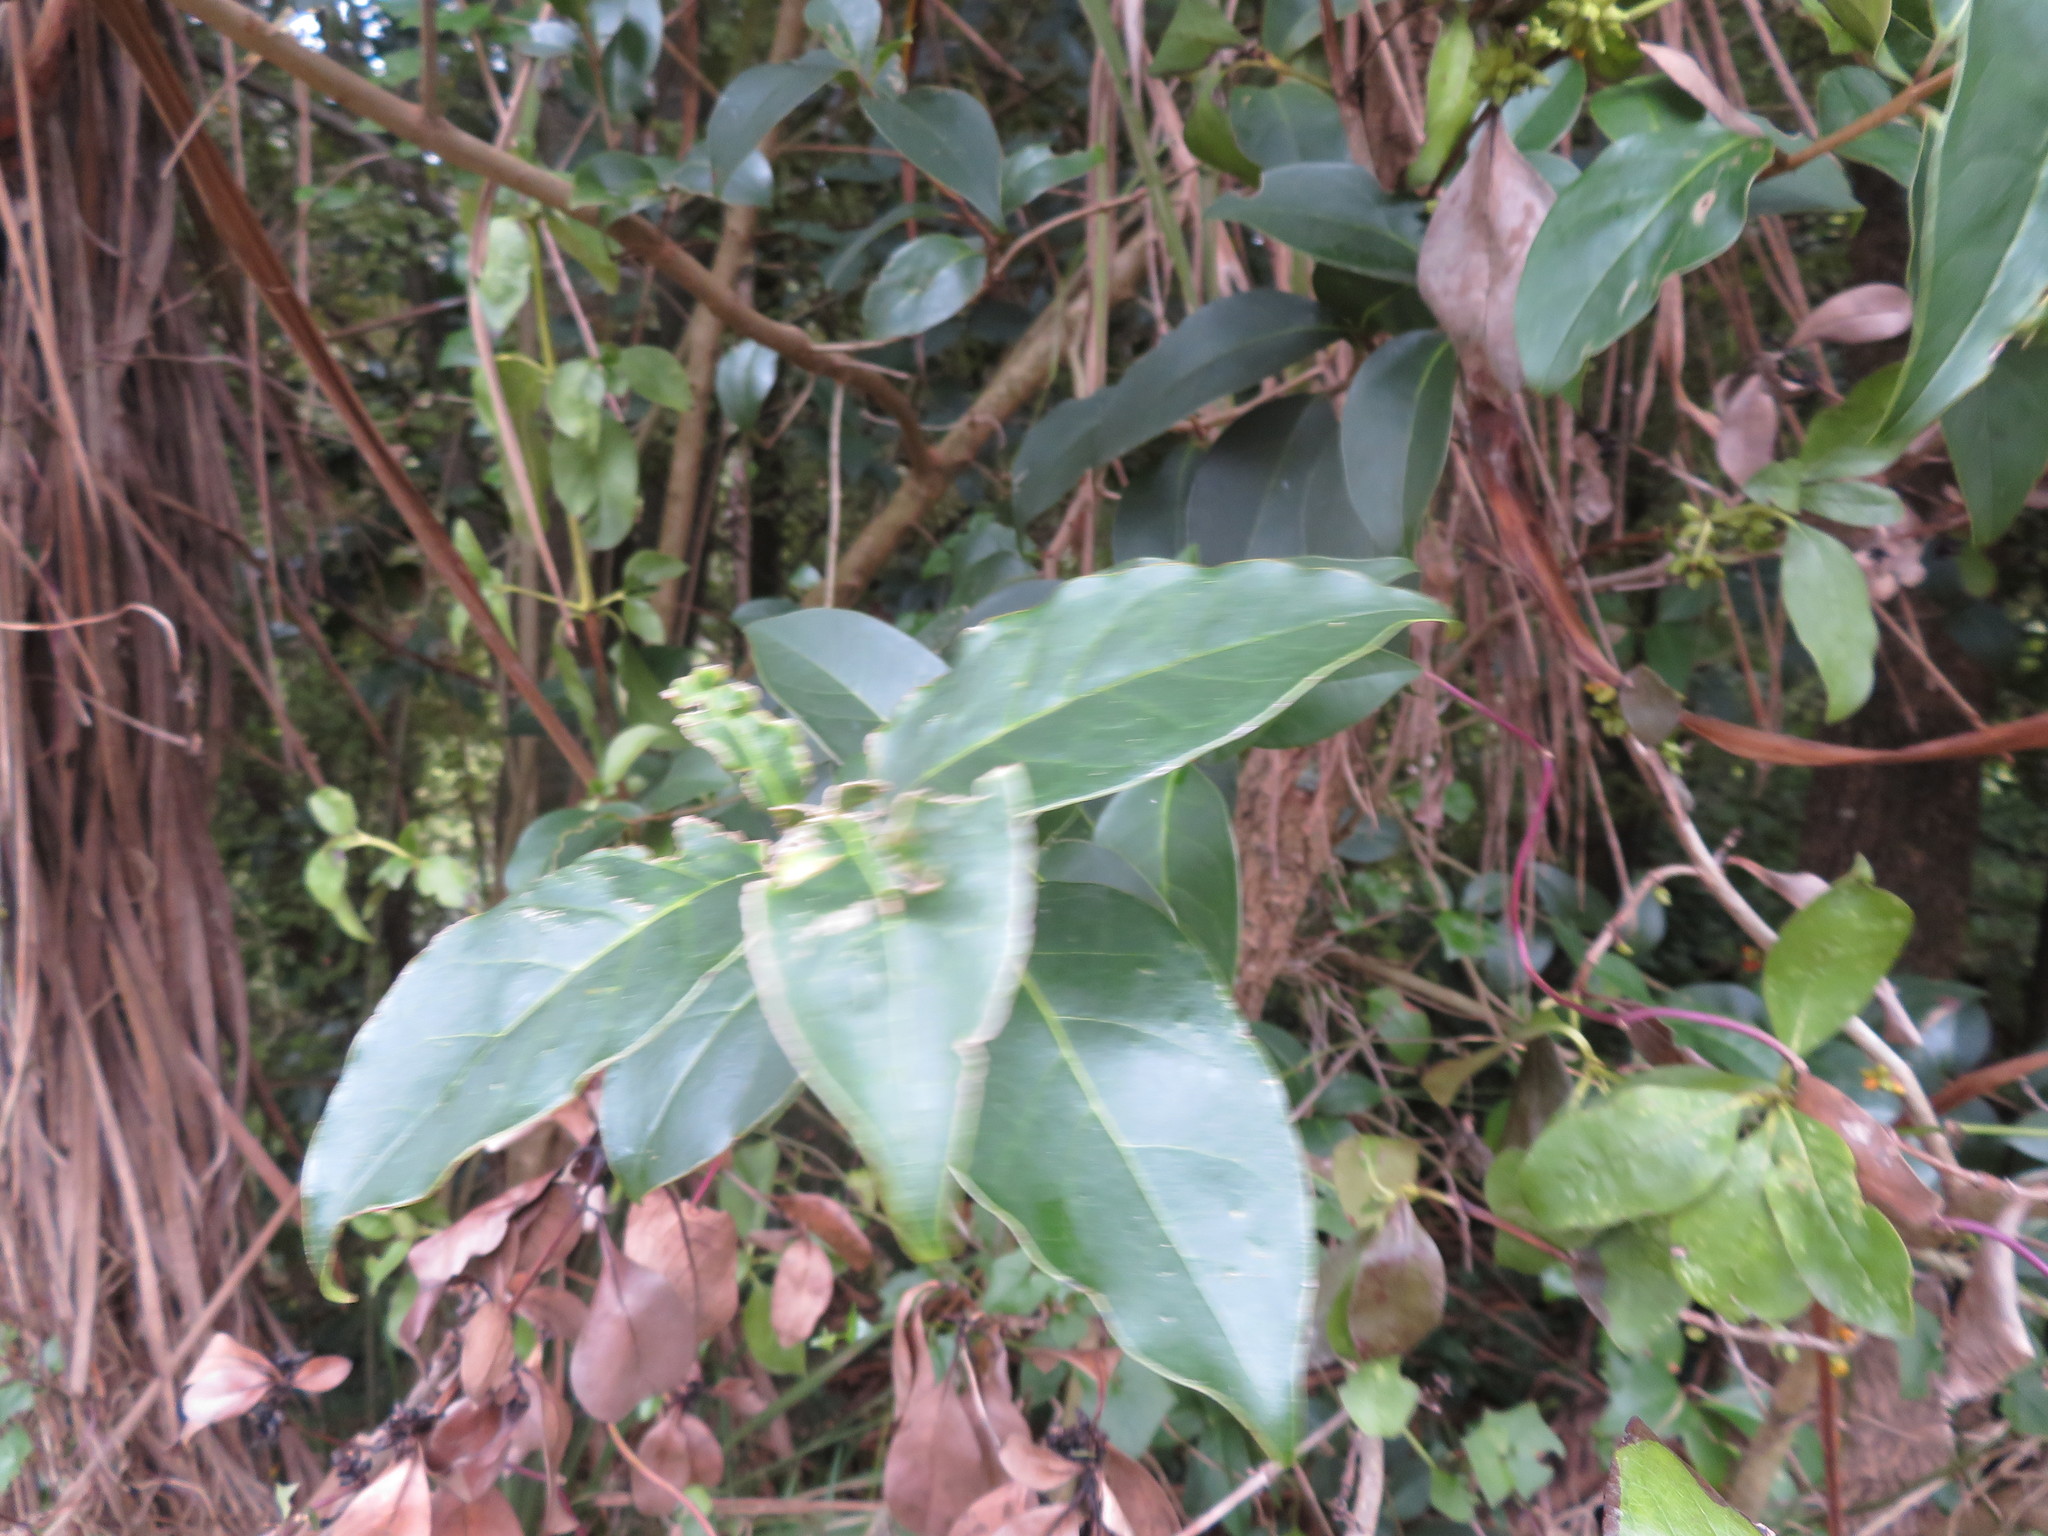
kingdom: Plantae
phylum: Tracheophyta
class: Magnoliopsida
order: Dipsacales
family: Caprifoliaceae
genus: Lonicera
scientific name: Lonicera japonica
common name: Japanese honeysuckle
